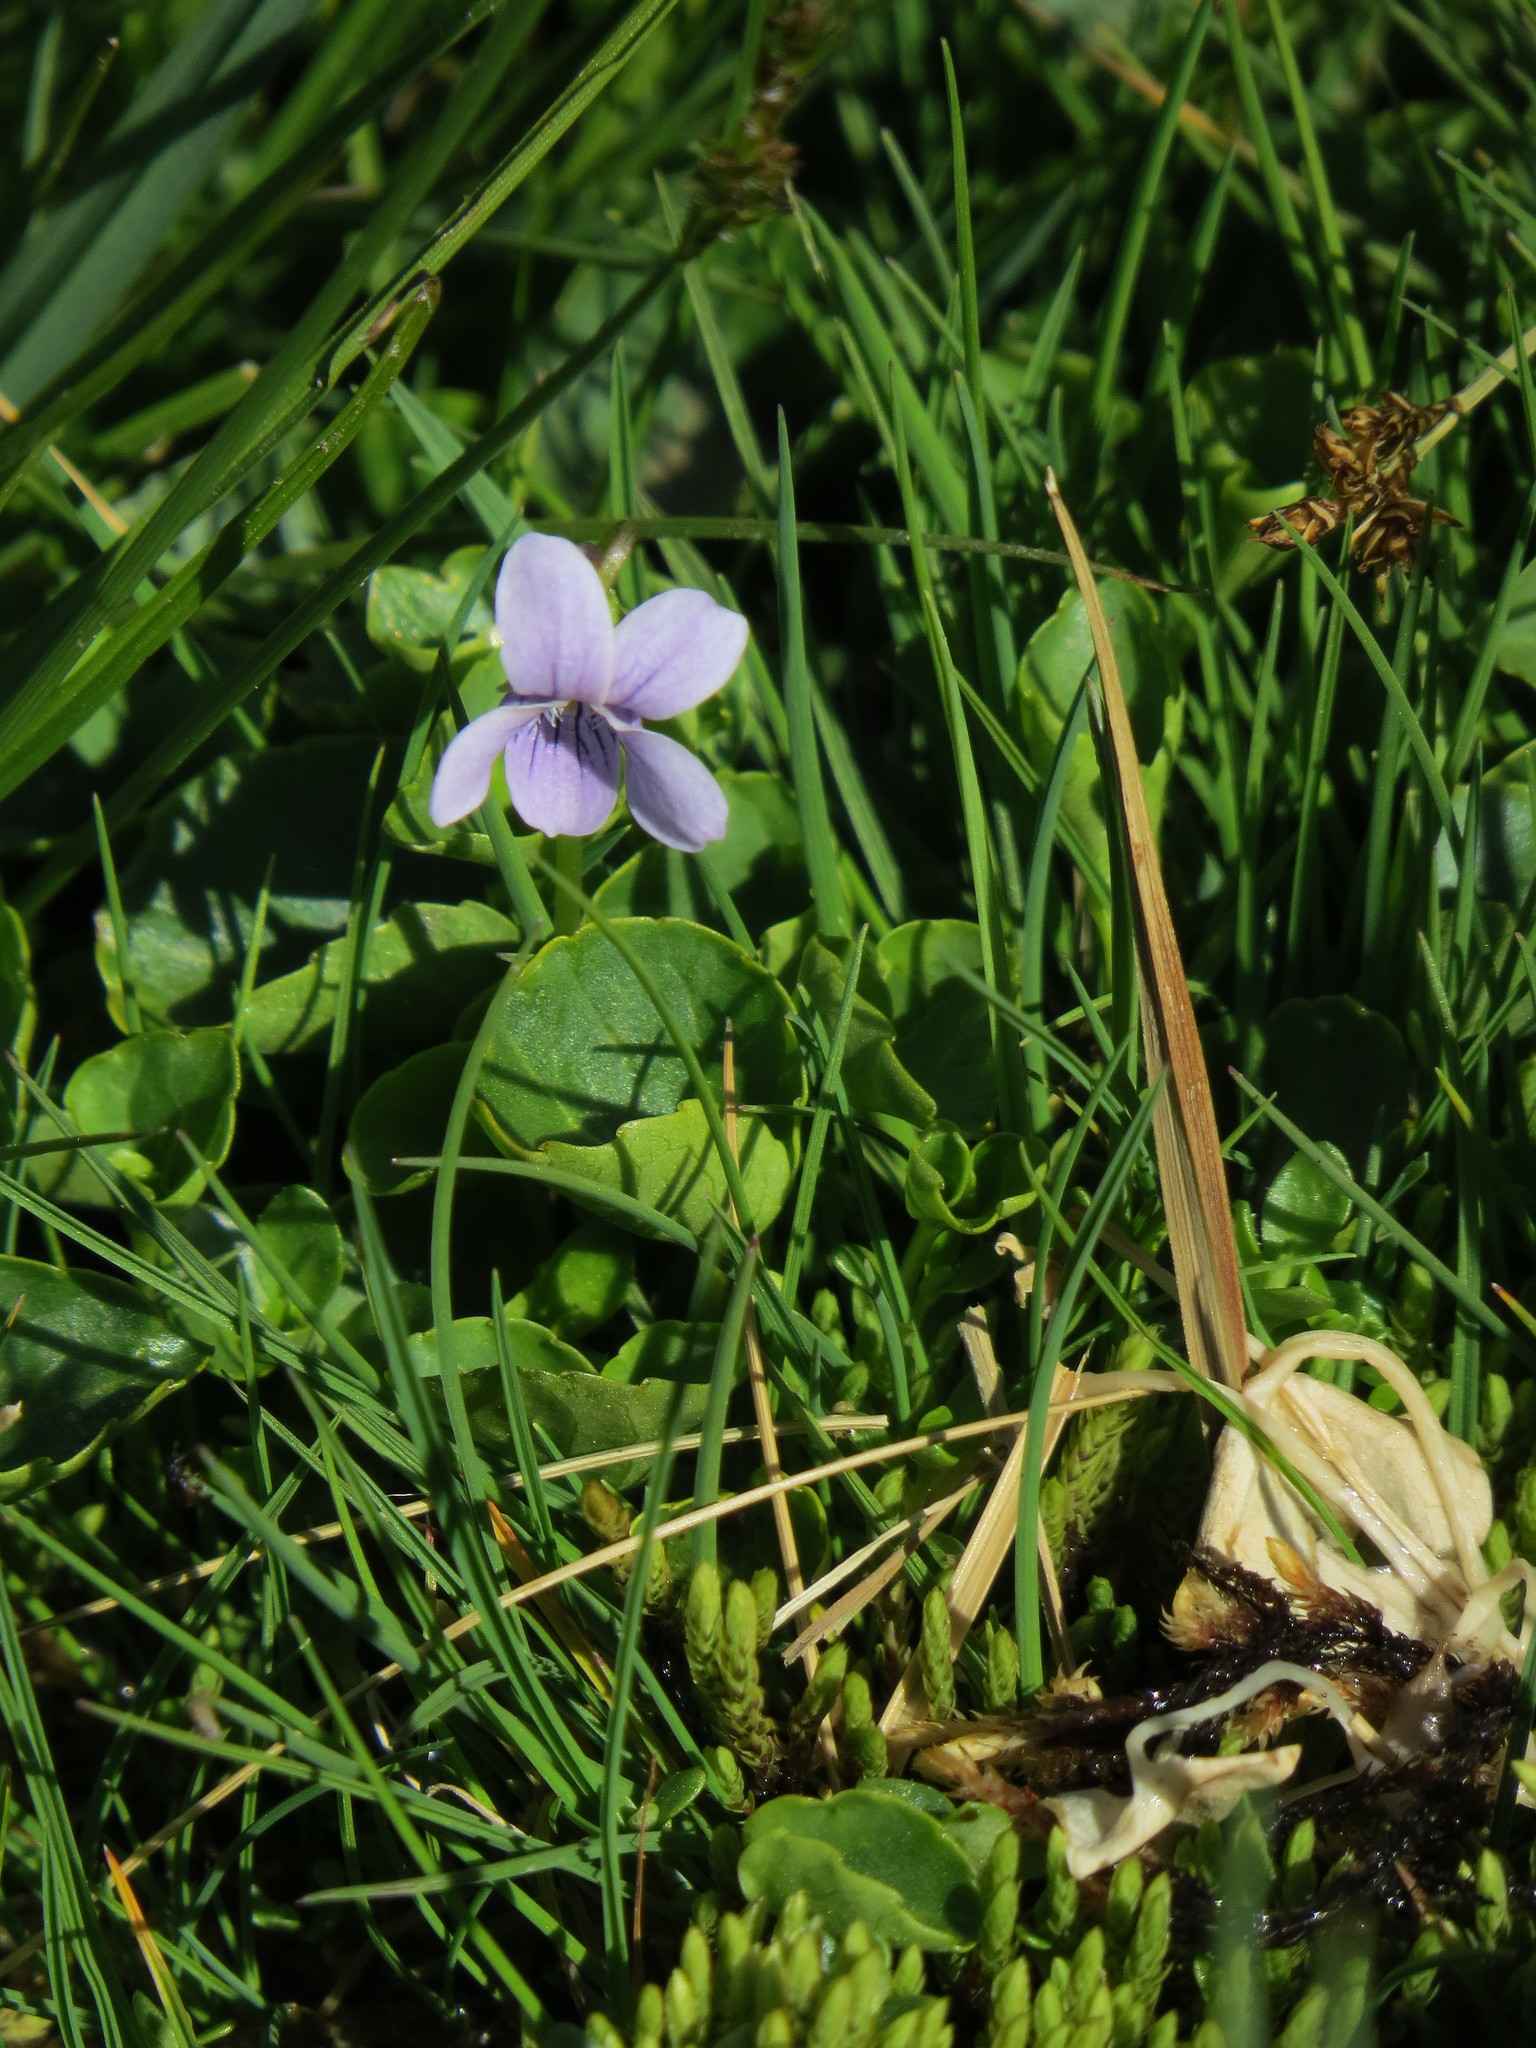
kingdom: Plantae
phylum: Tracheophyta
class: Magnoliopsida
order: Malpighiales
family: Violaceae
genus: Viola
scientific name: Viola palustris
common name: Marsh violet
